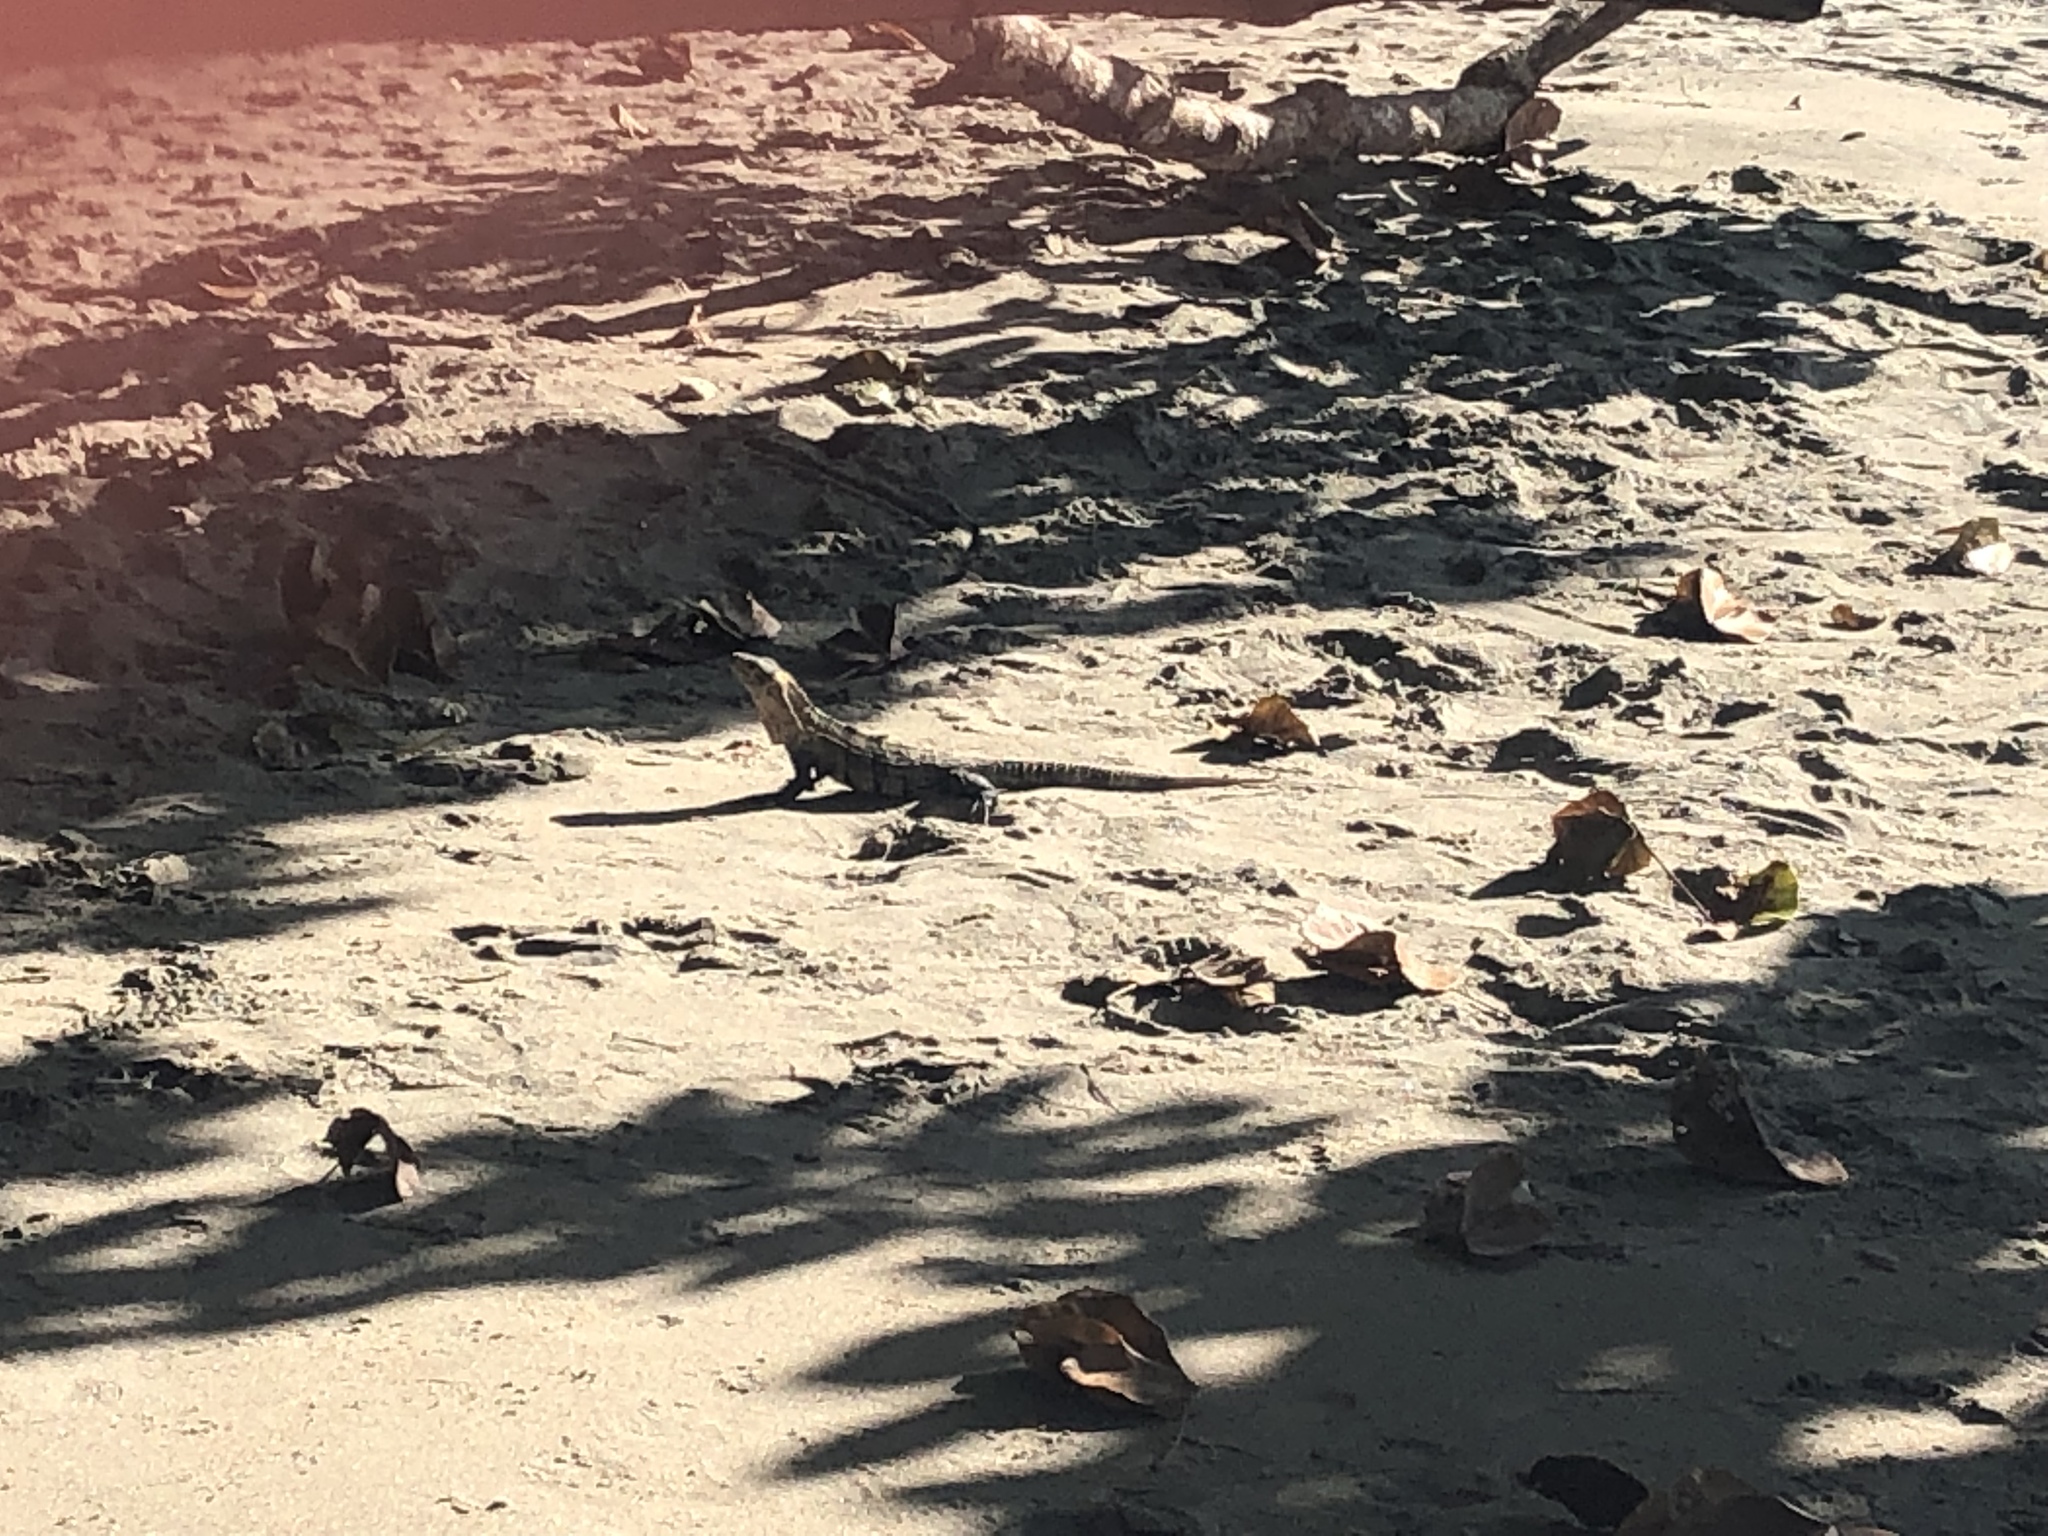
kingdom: Animalia
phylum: Chordata
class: Squamata
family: Iguanidae
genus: Ctenosaura
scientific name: Ctenosaura similis
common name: Black spiny-tailed iguana
